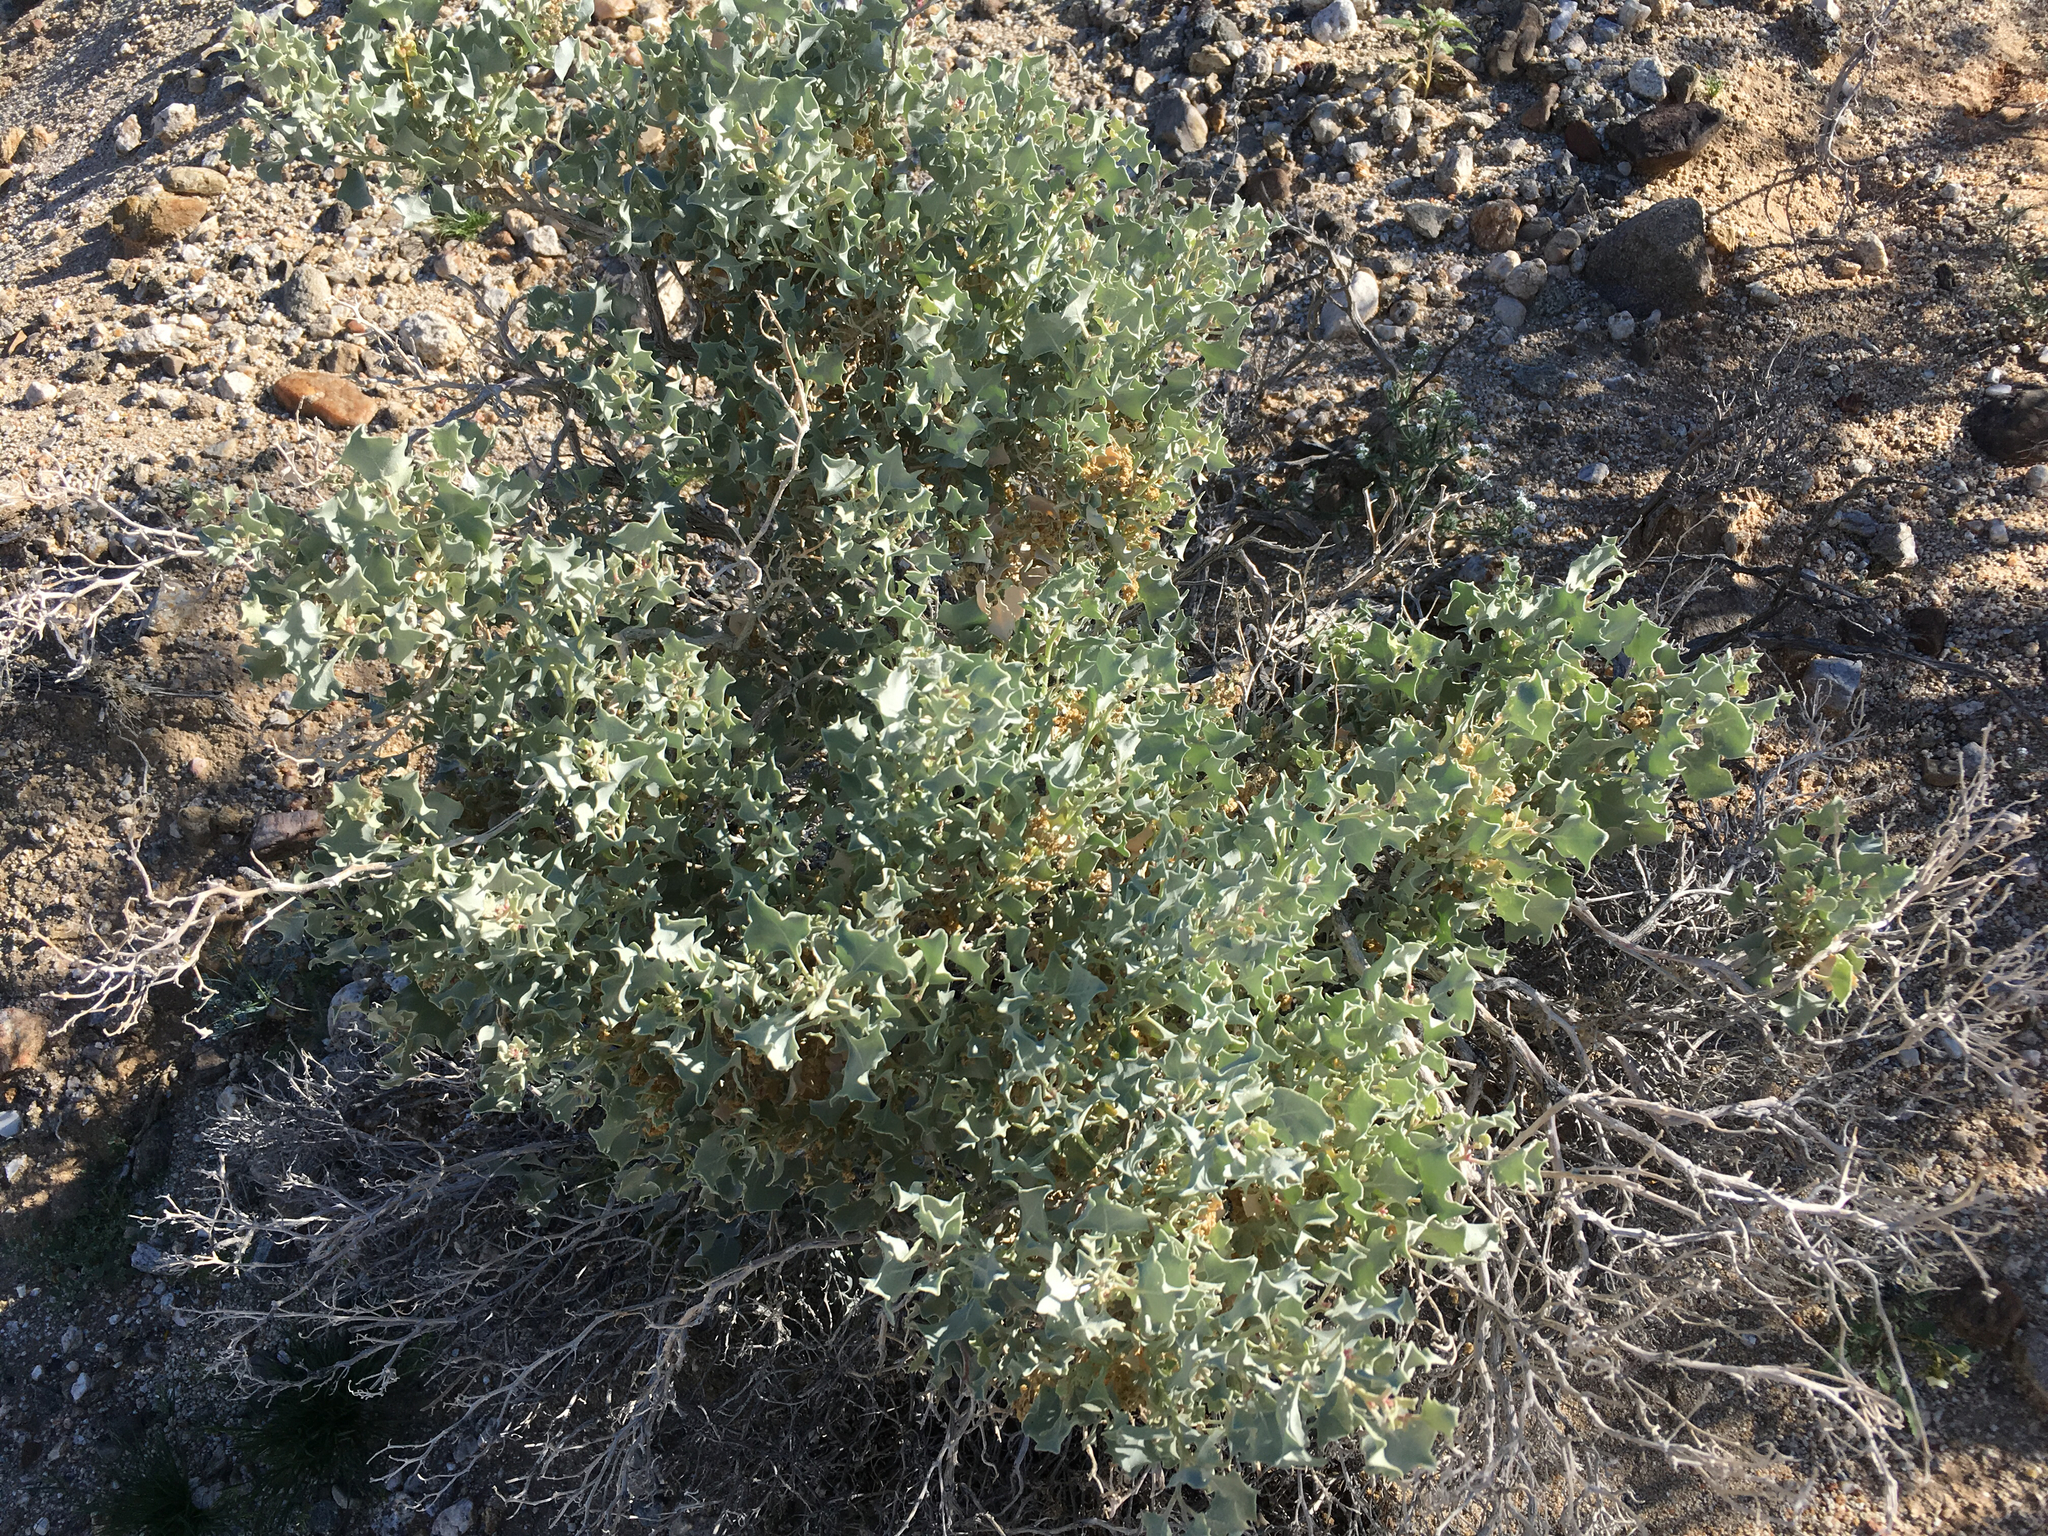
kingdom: Plantae
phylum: Tracheophyta
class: Magnoliopsida
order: Caryophyllales
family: Amaranthaceae
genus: Atriplex
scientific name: Atriplex hymenelytra
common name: Desert-holly
